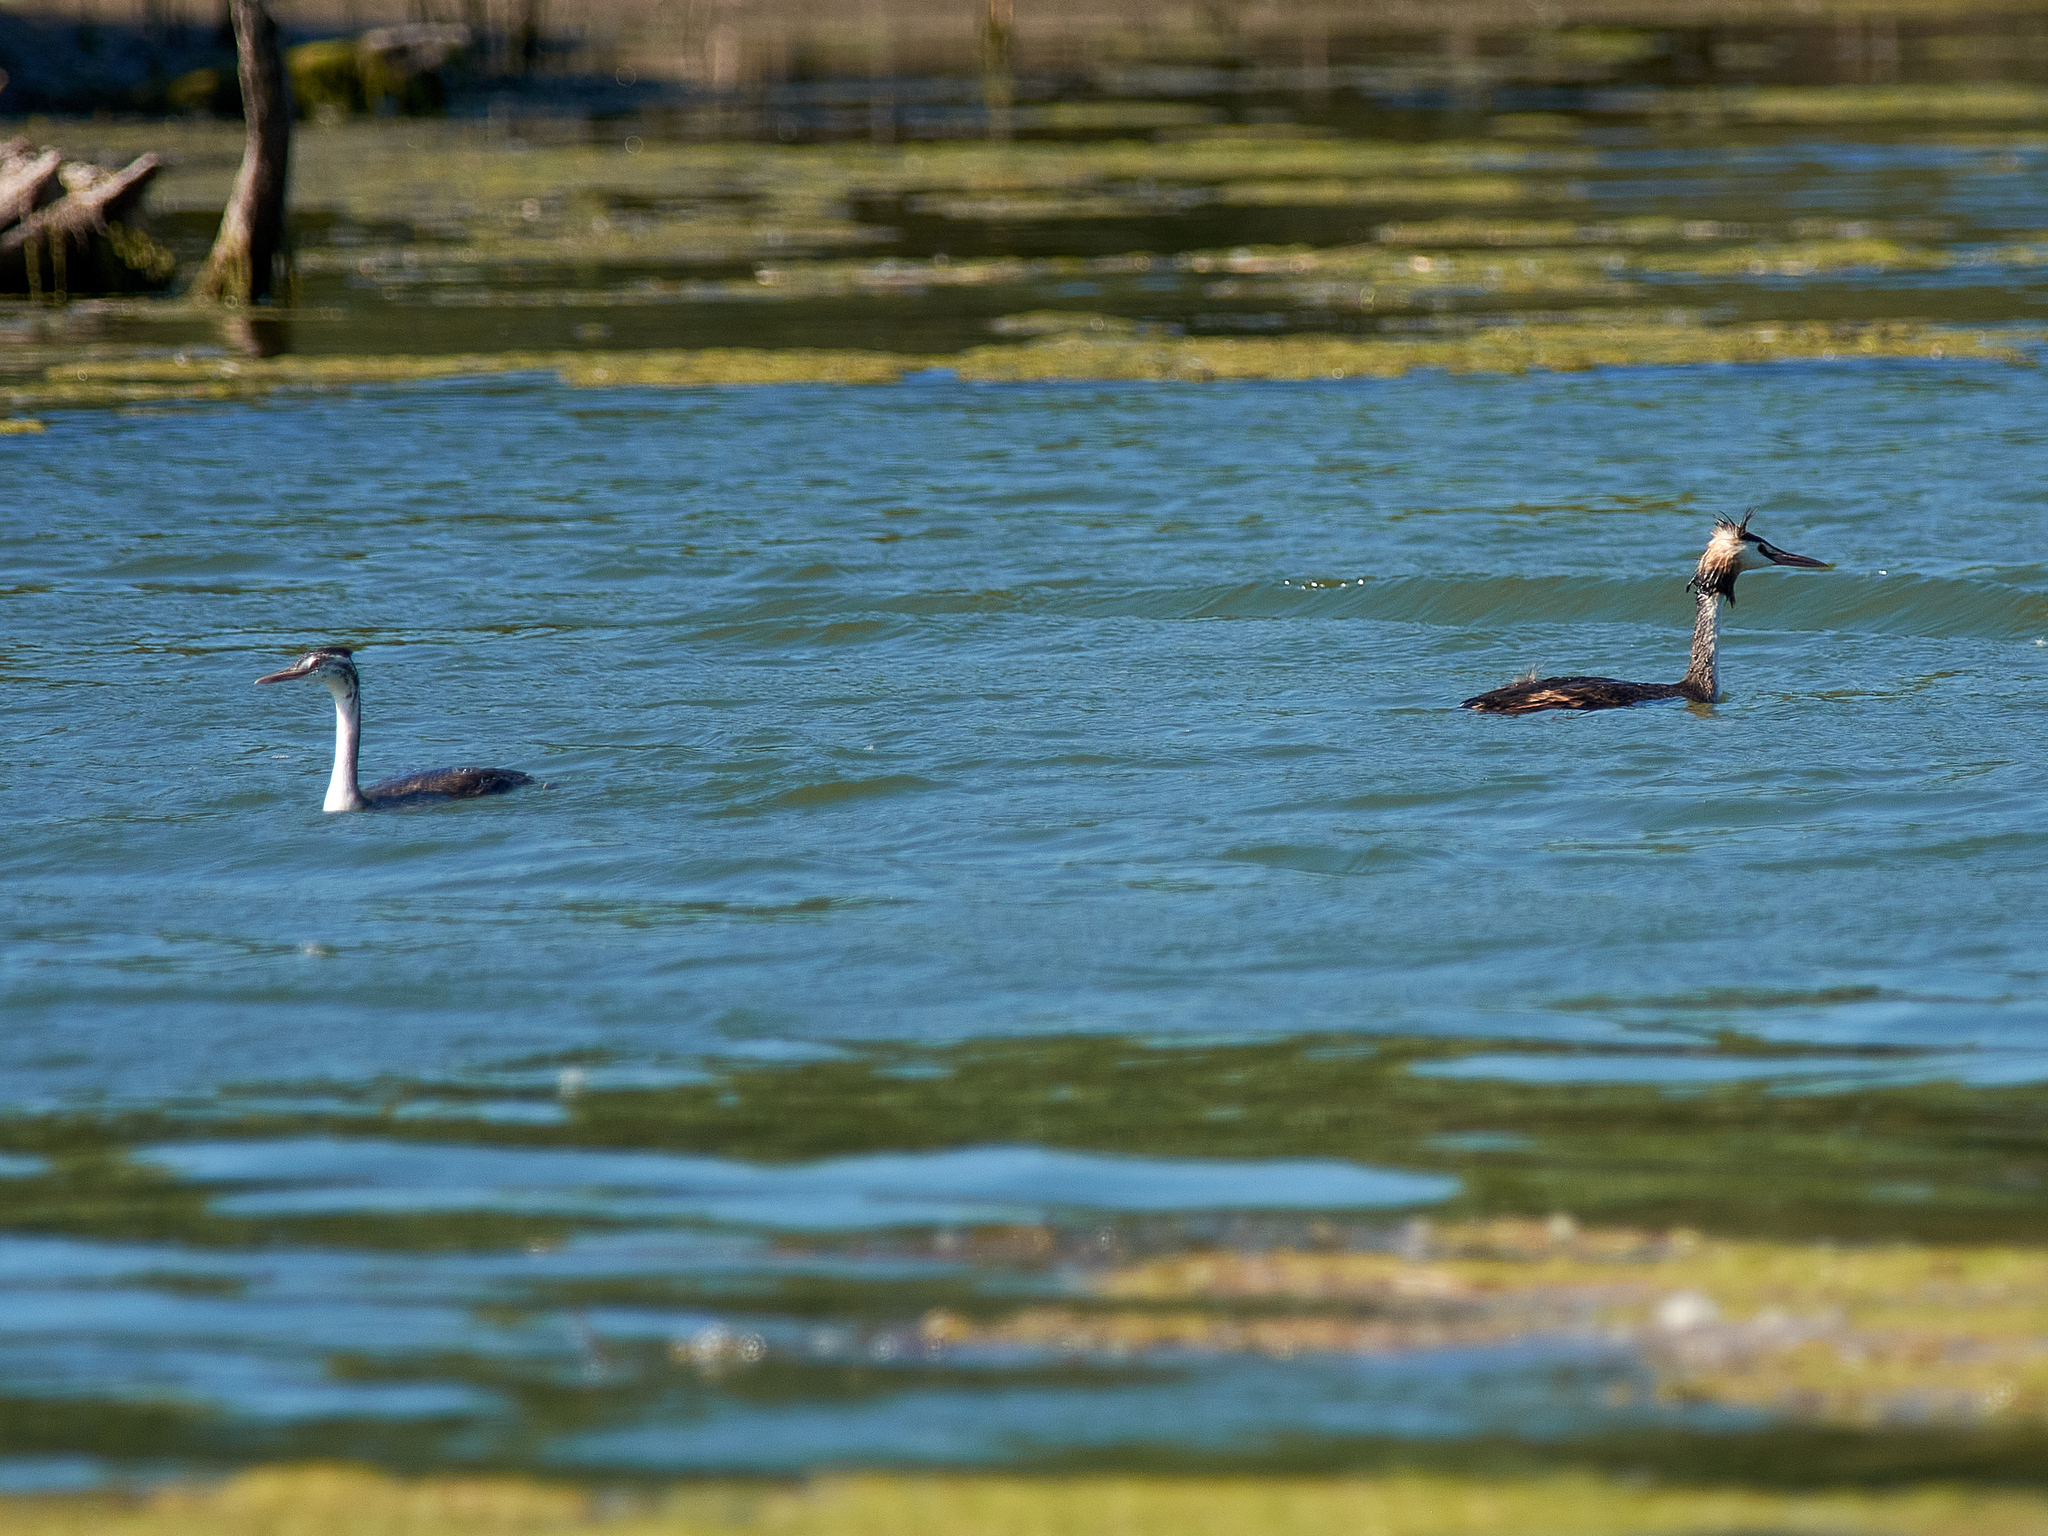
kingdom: Animalia
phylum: Chordata
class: Aves
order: Podicipediformes
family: Podicipedidae
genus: Podiceps
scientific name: Podiceps cristatus
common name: Great crested grebe
